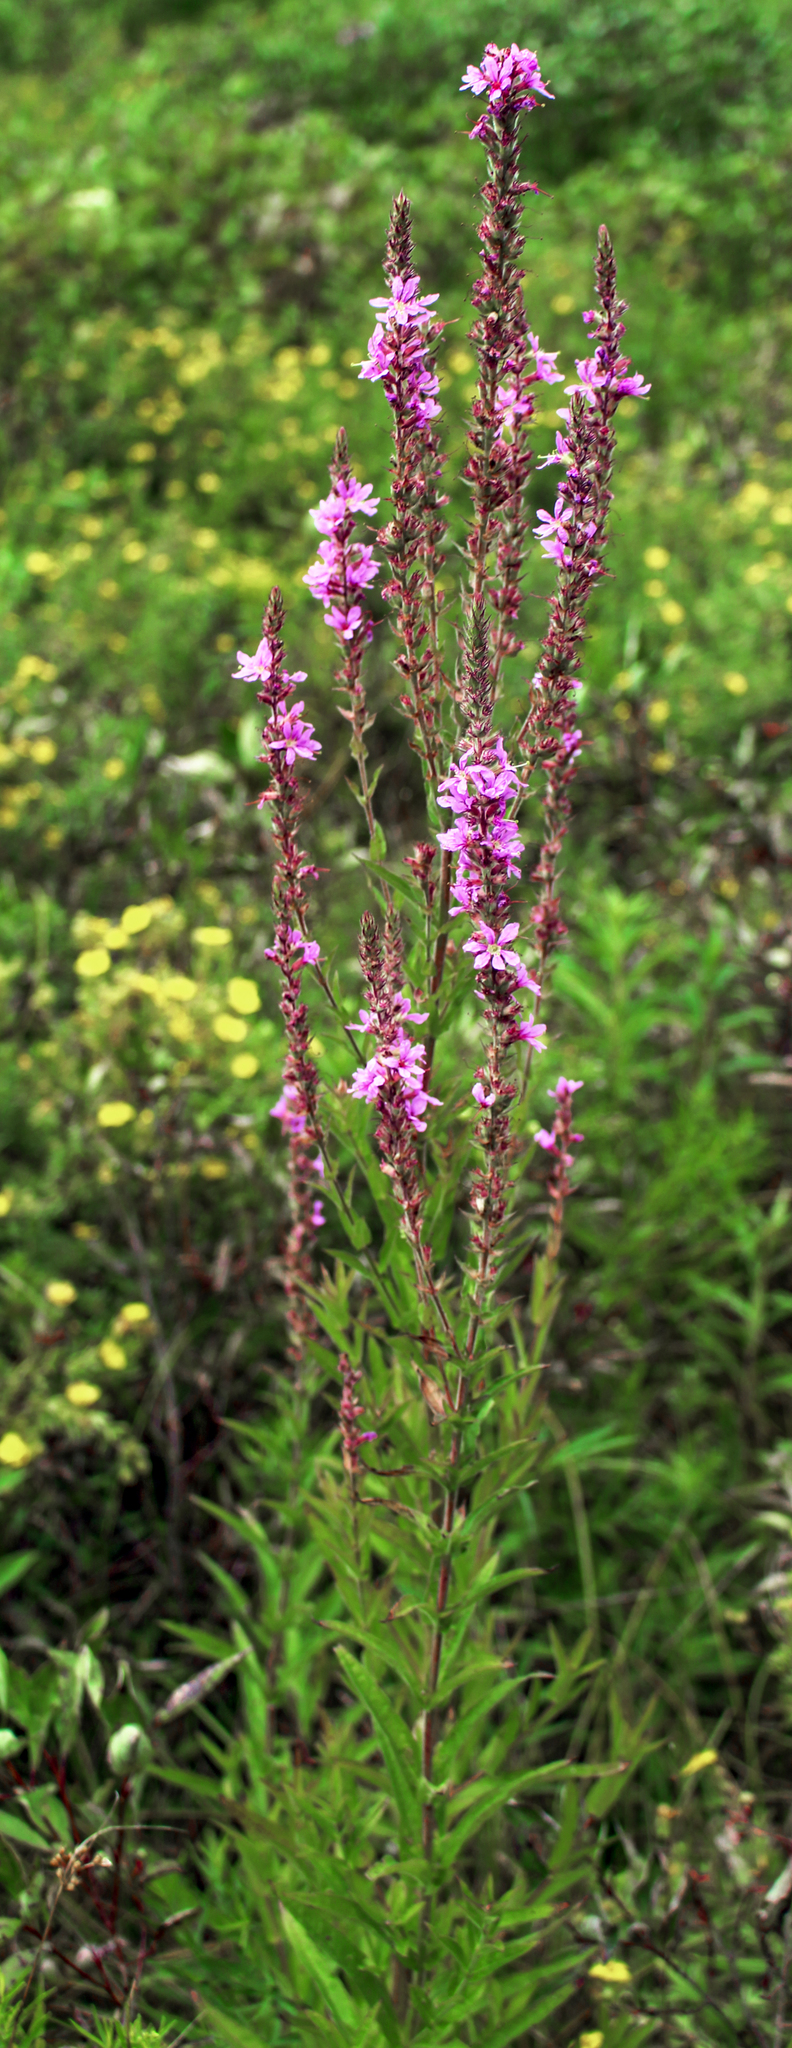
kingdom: Plantae
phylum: Tracheophyta
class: Magnoliopsida
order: Myrtales
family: Lythraceae
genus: Lythrum
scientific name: Lythrum salicaria
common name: Purple loosestrife
